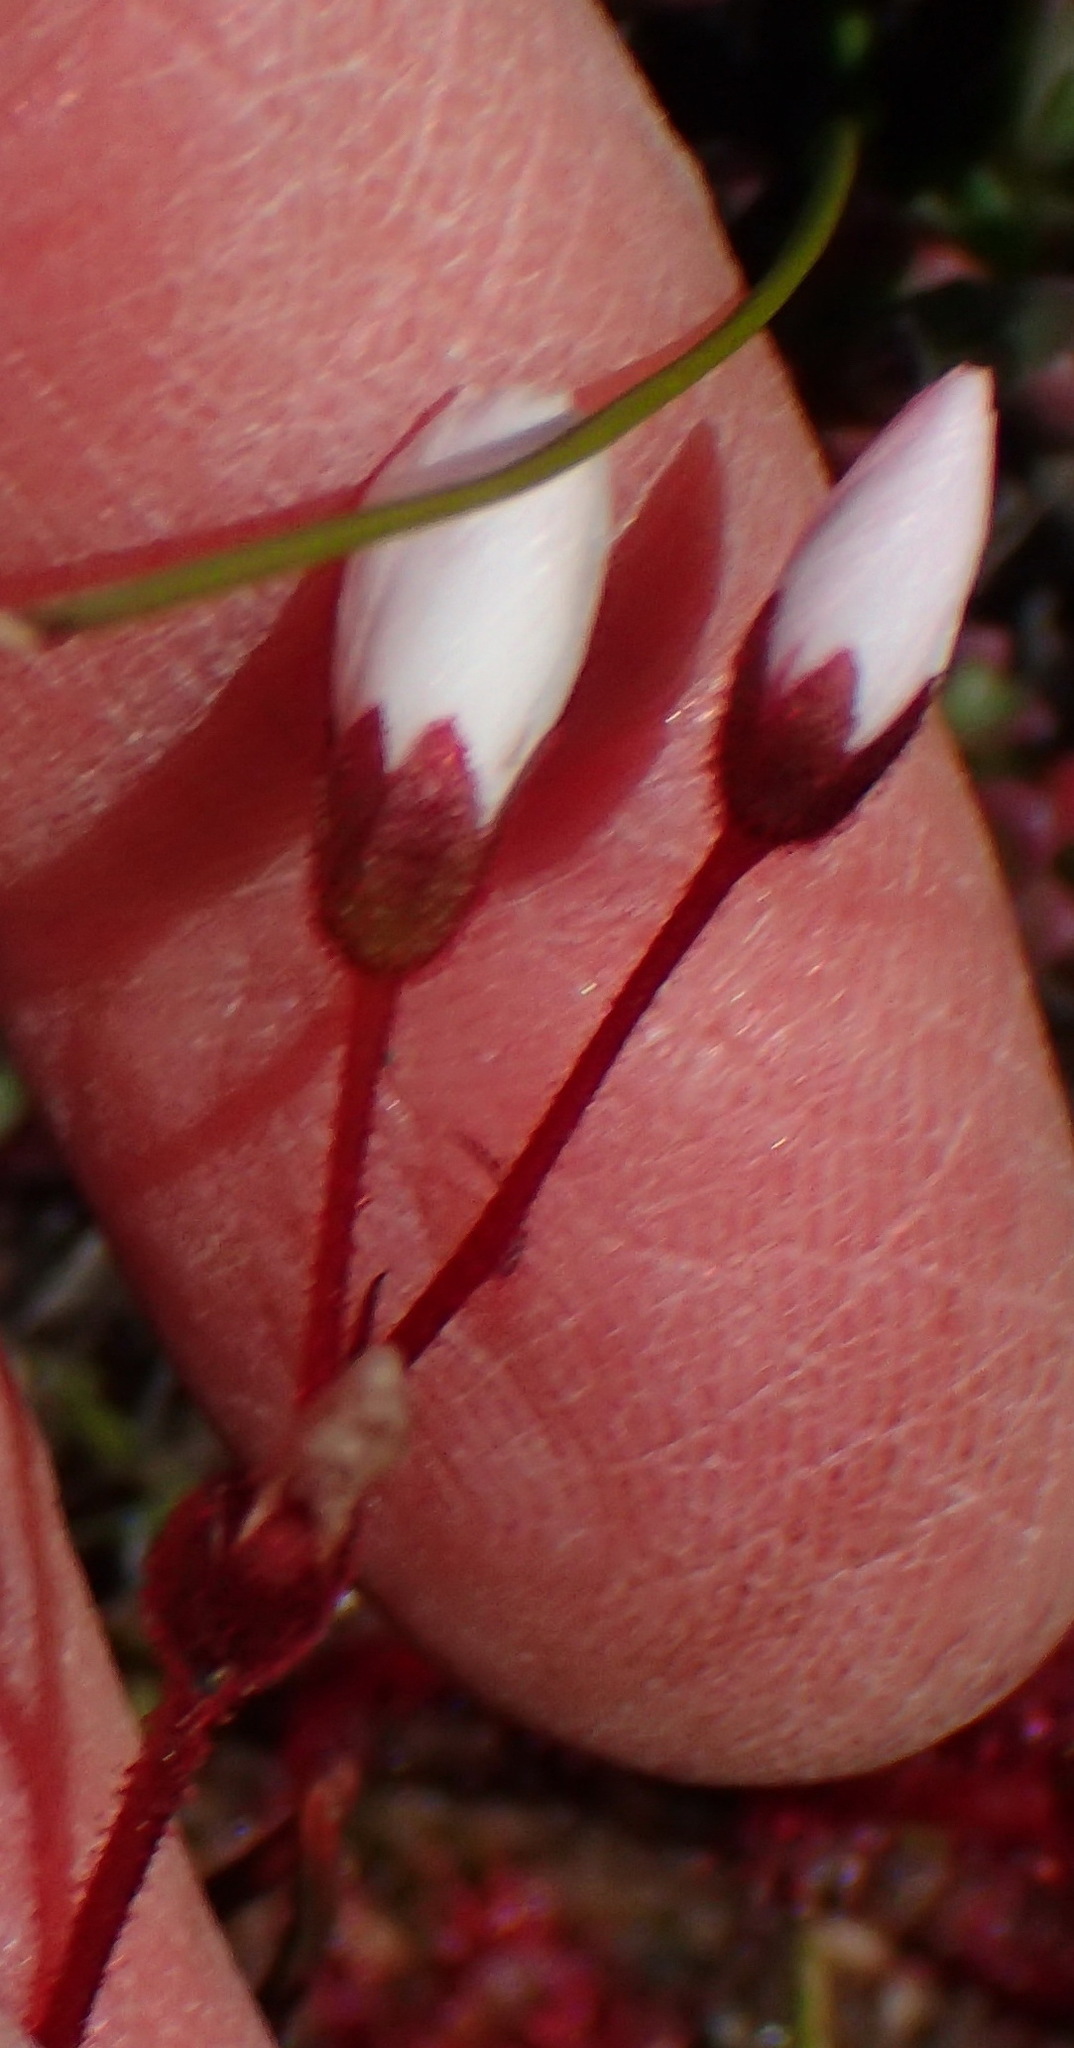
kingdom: Plantae
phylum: Tracheophyta
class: Magnoliopsida
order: Caryophyllales
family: Droseraceae
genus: Drosera
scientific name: Drosera alba
